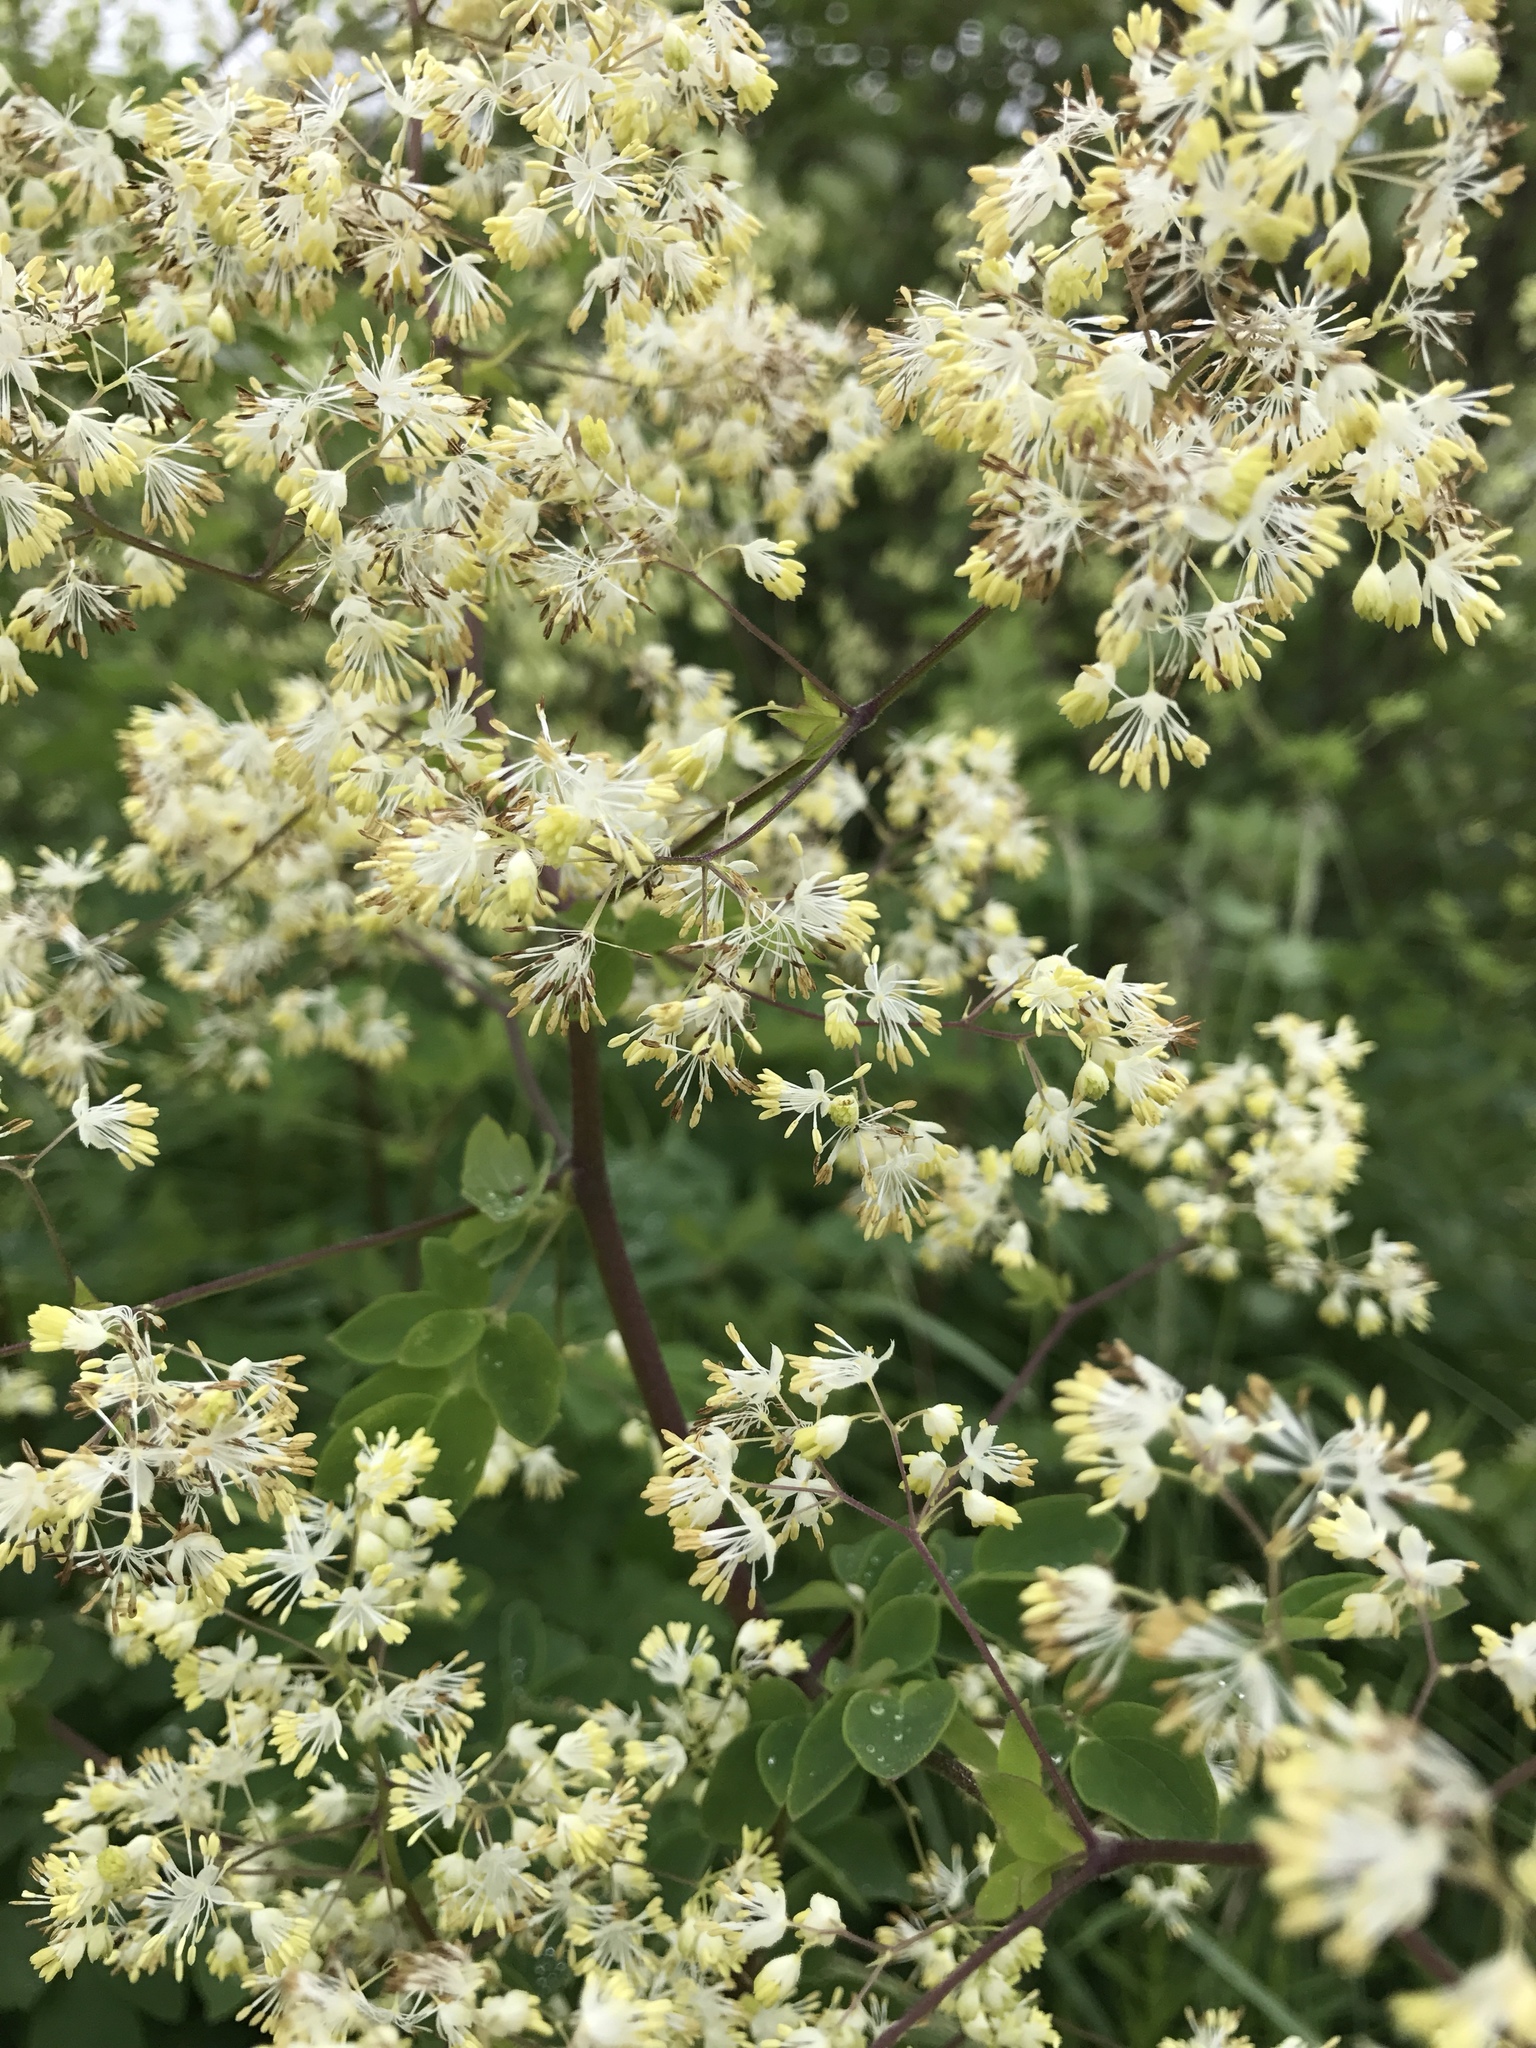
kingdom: Plantae
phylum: Tracheophyta
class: Magnoliopsida
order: Ranunculales
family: Ranunculaceae
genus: Thalictrum
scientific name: Thalictrum dasycarpum
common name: Purple meadow-rue
